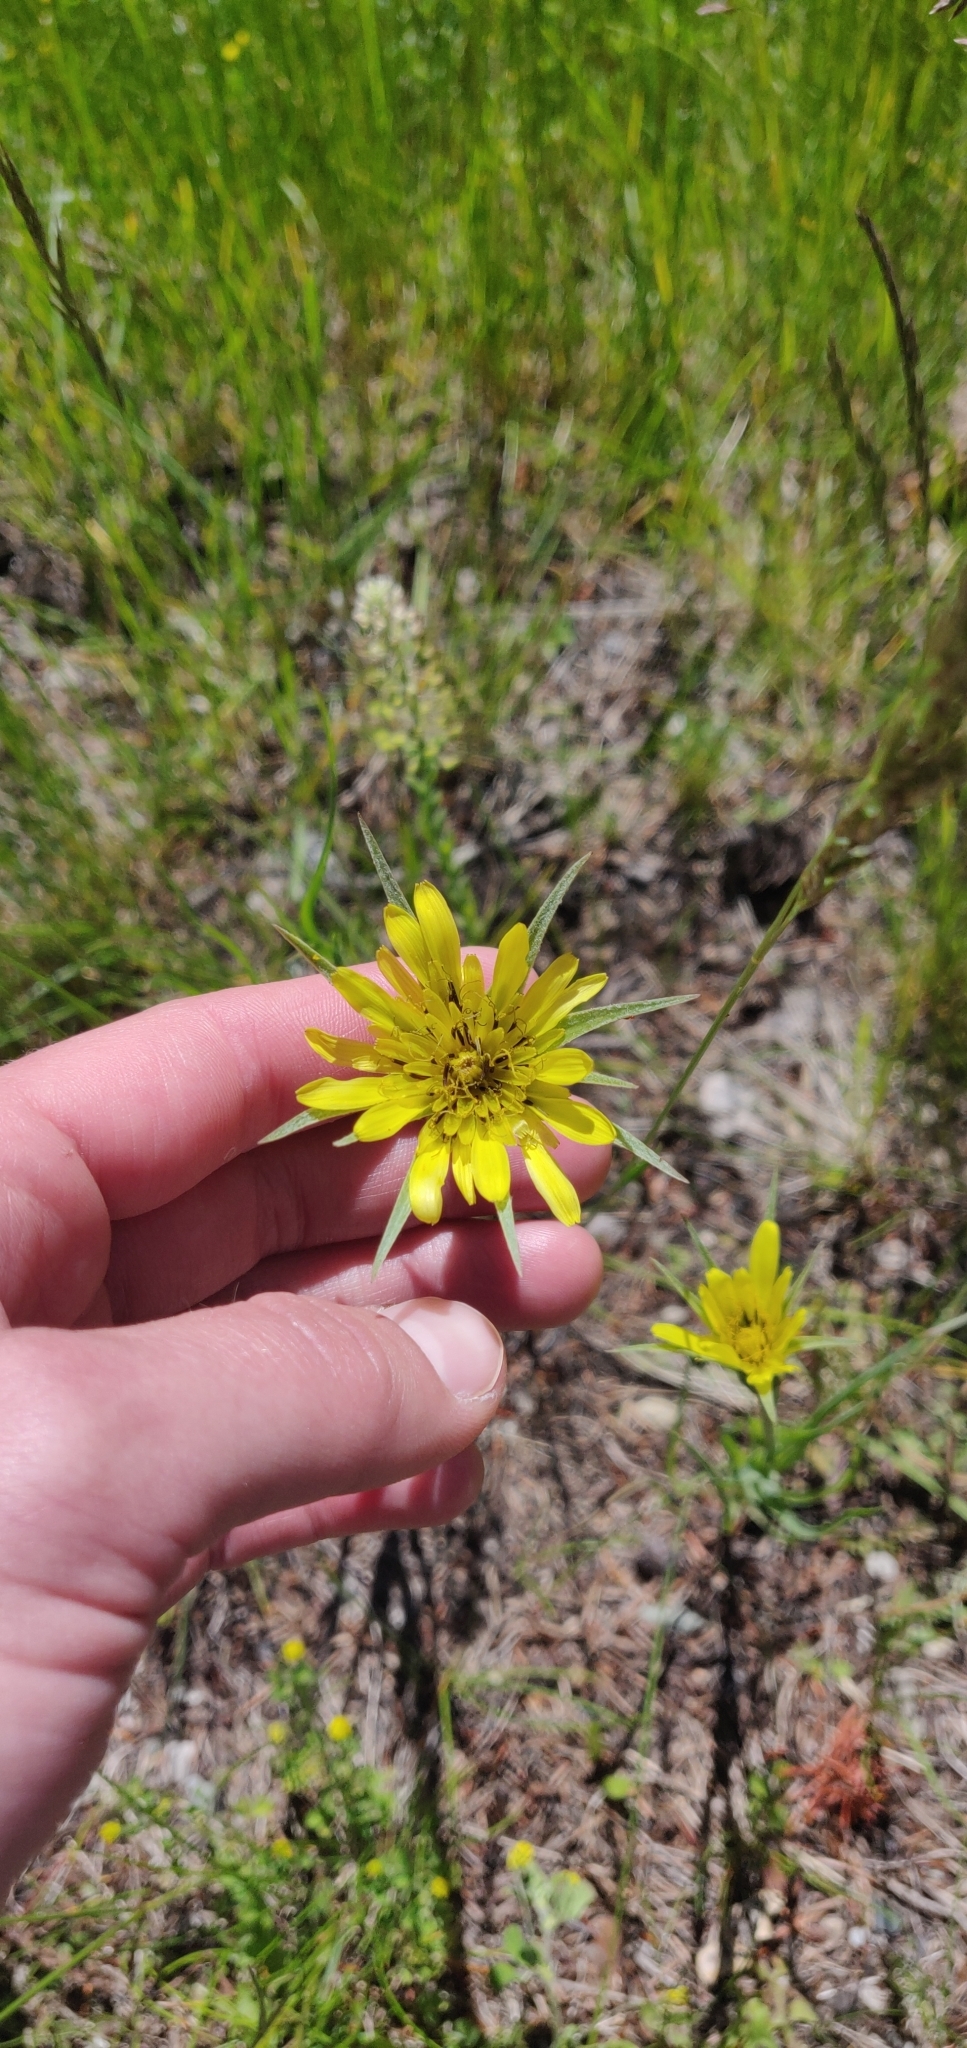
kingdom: Plantae
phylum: Tracheophyta
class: Magnoliopsida
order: Asterales
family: Asteraceae
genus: Tragopogon
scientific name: Tragopogon dubius
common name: Yellow salsify
